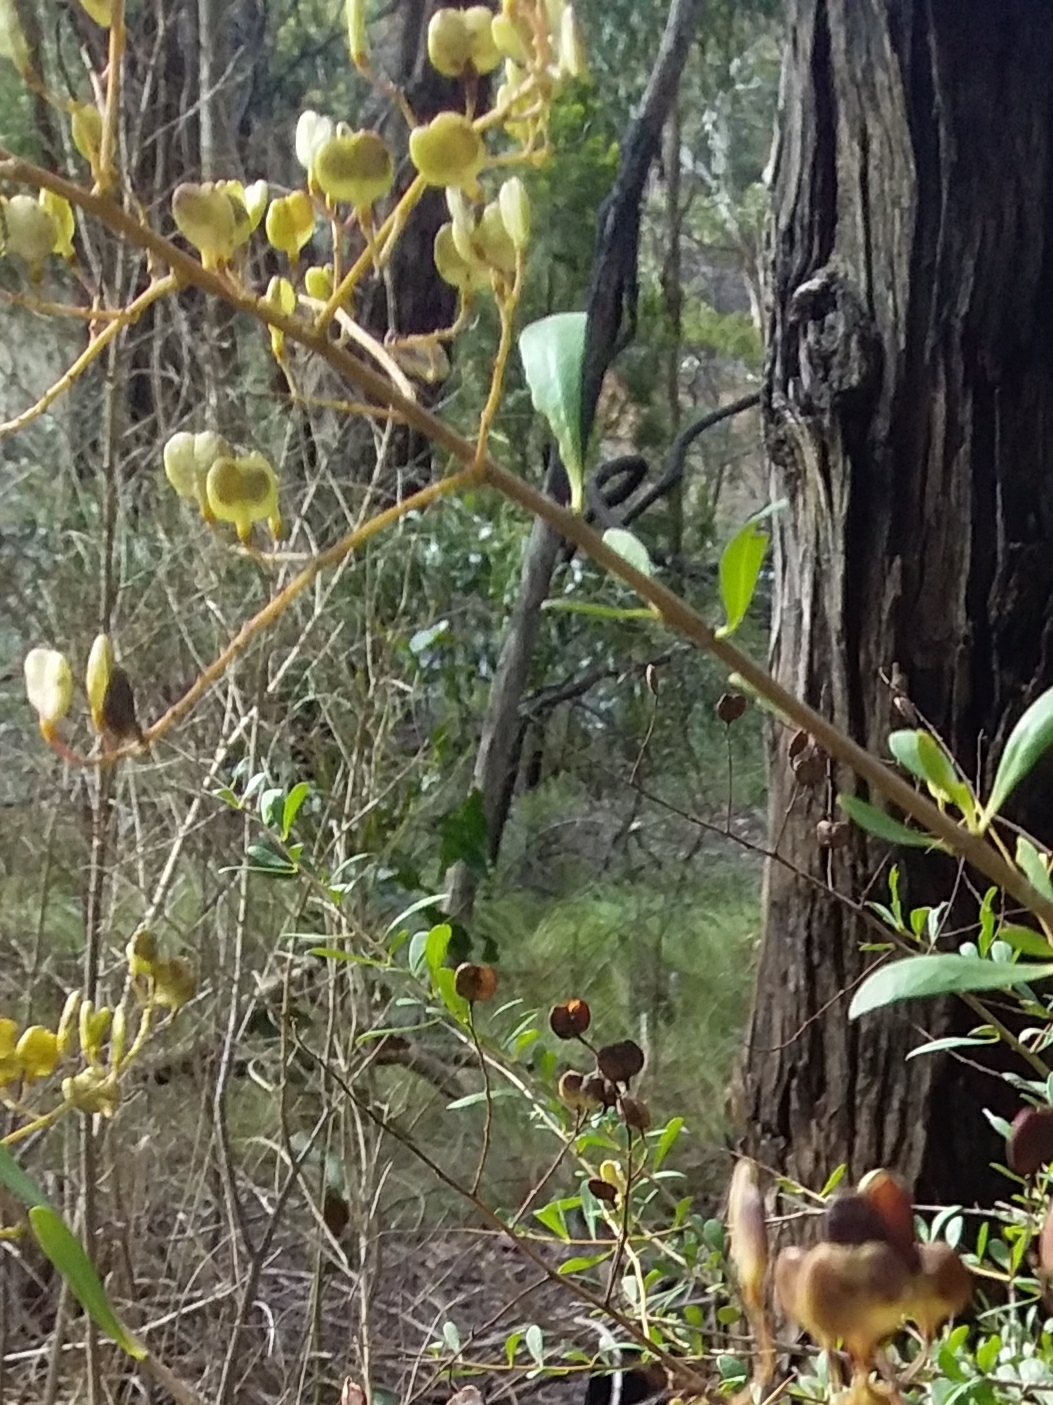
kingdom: Plantae
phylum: Tracheophyta
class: Magnoliopsida
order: Apiales
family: Pittosporaceae
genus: Bursaria
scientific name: Bursaria spinosa
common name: Australian blackthorn
